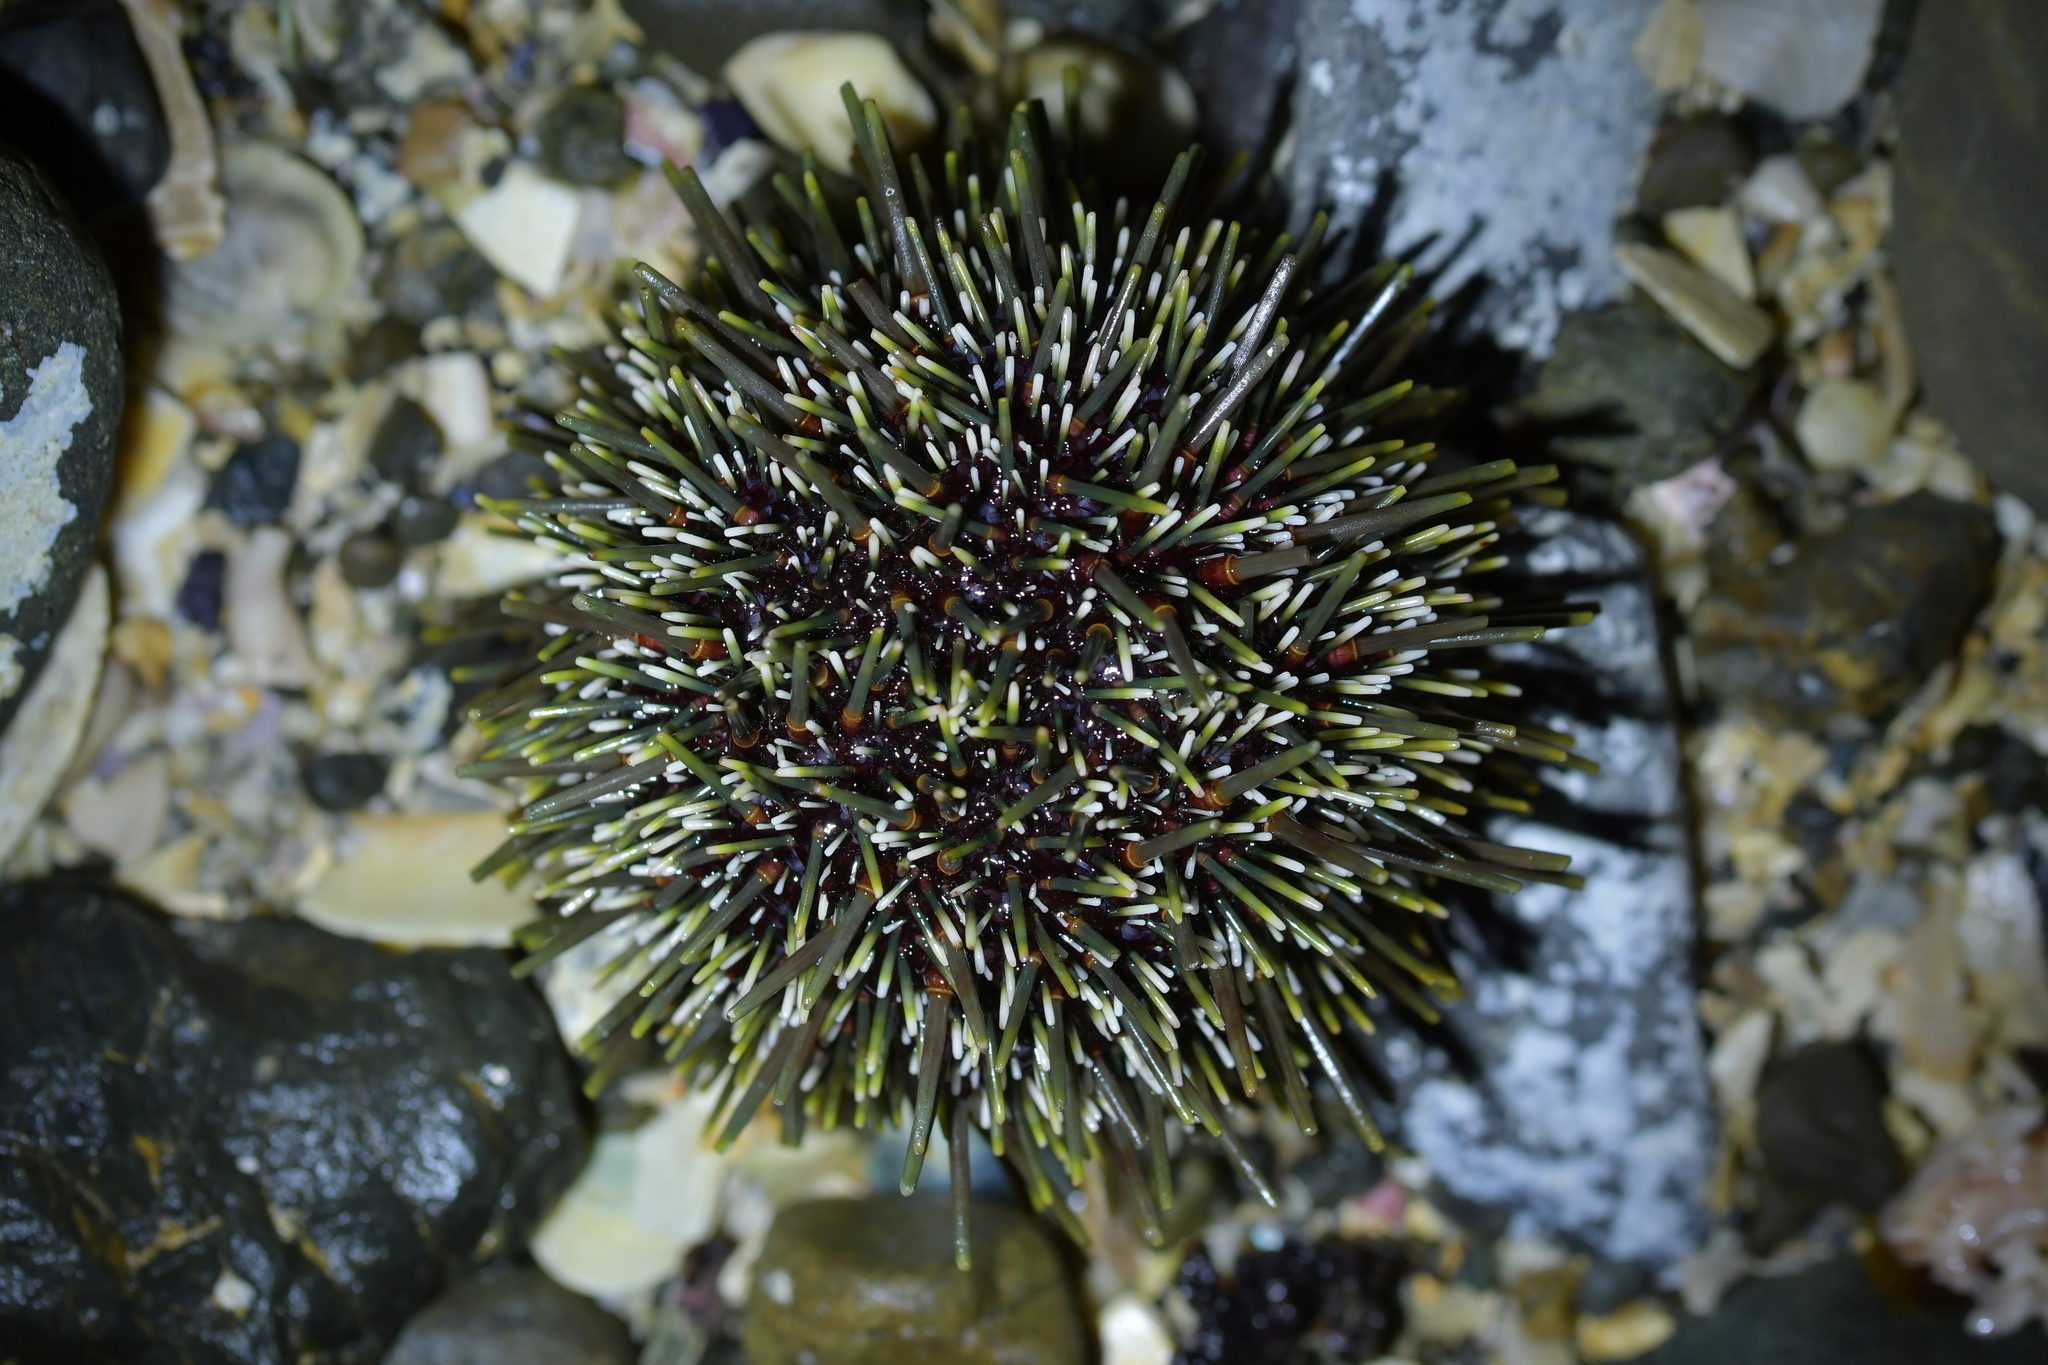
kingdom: Animalia
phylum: Echinodermata
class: Echinoidea
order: Camarodonta
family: Echinometridae
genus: Evechinus
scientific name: Evechinus chloroticus
